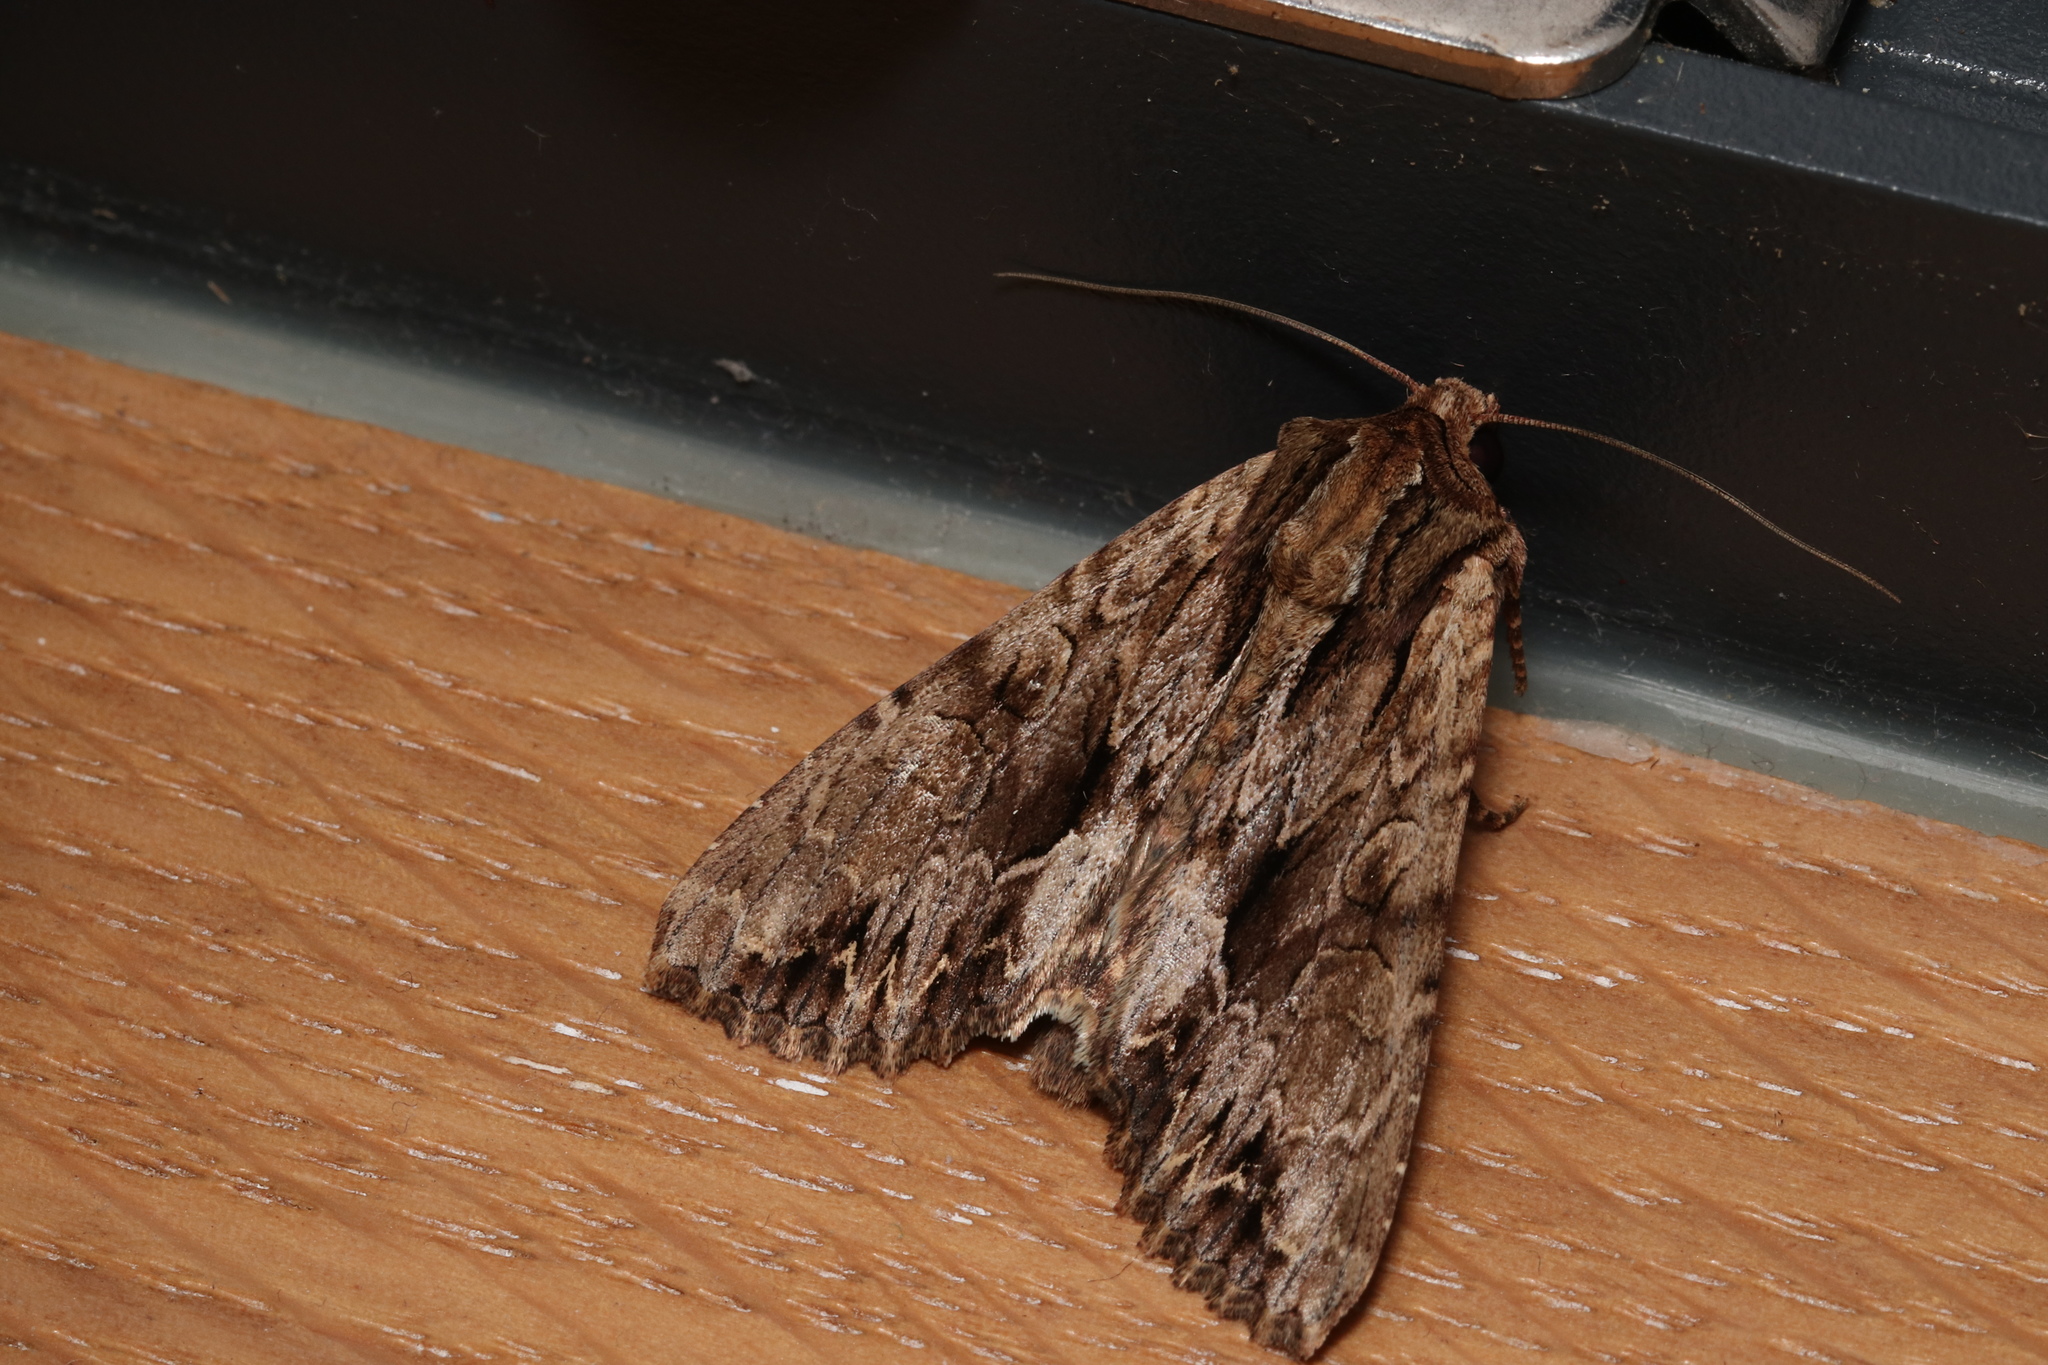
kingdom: Animalia
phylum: Arthropoda
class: Insecta
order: Lepidoptera
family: Noctuidae
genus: Apamea
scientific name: Apamea monoglypha
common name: Dark arches
